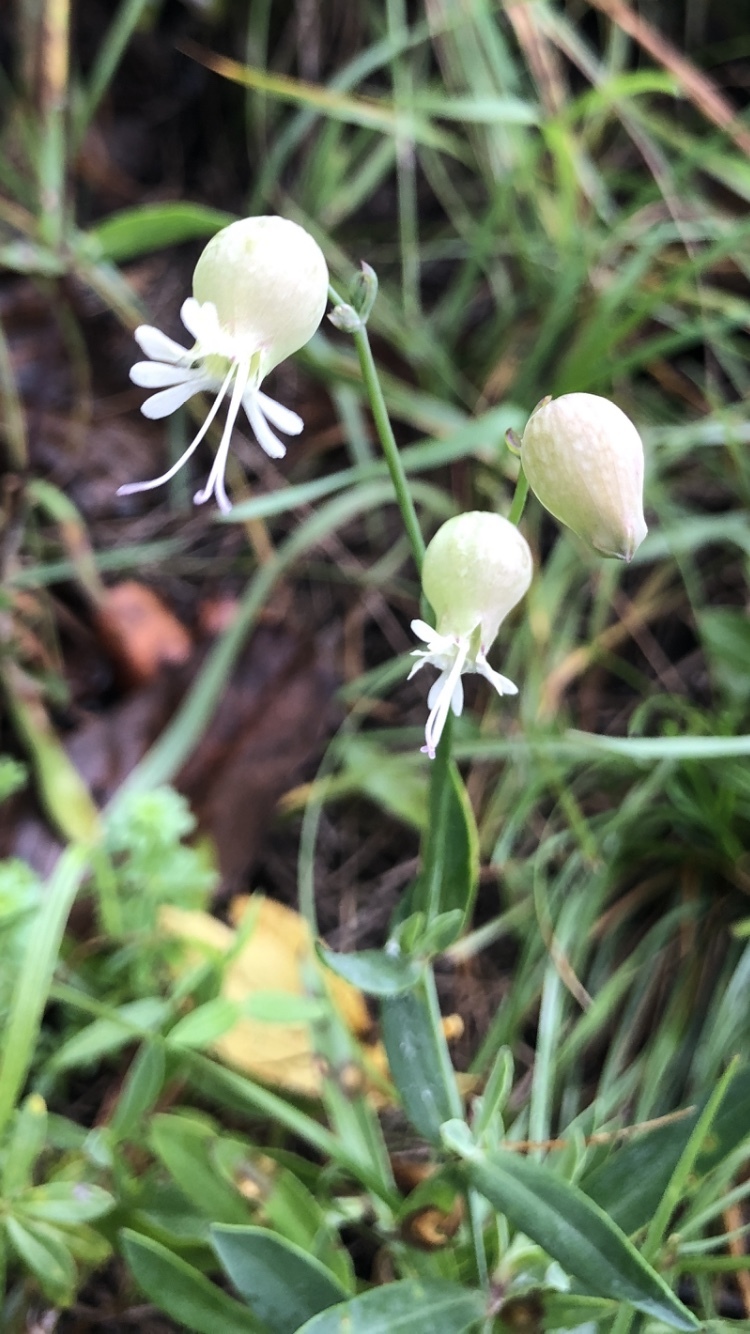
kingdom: Plantae
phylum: Tracheophyta
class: Magnoliopsida
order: Caryophyllales
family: Caryophyllaceae
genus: Silene
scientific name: Silene vulgaris
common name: Bladder campion
